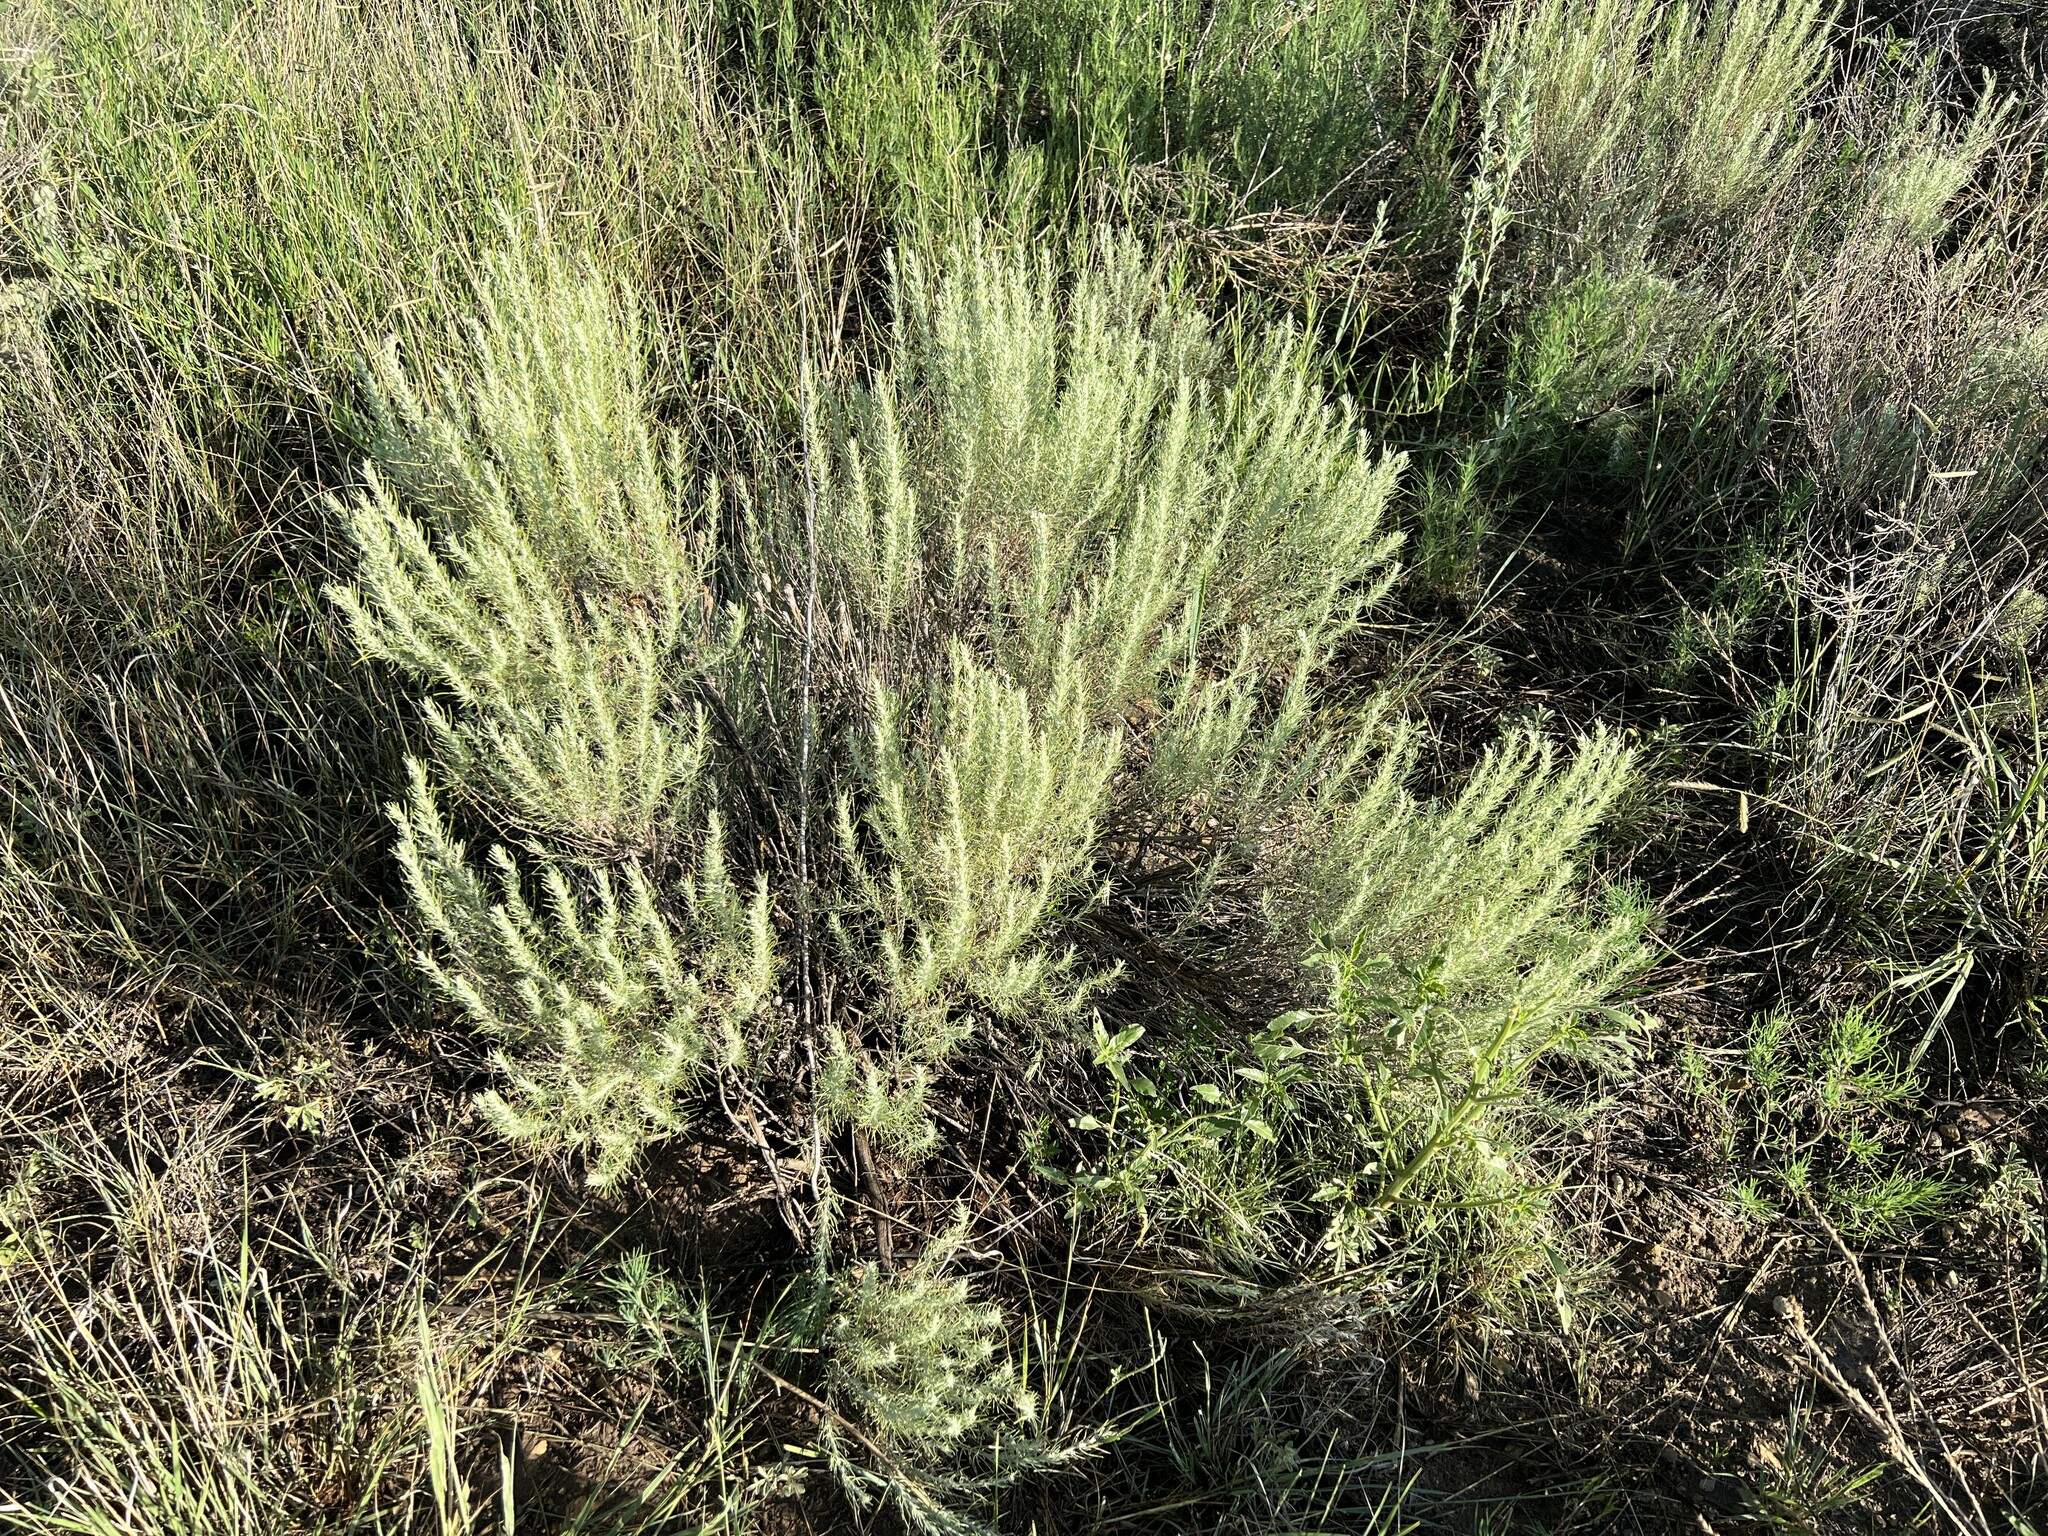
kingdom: Plantae
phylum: Tracheophyta
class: Magnoliopsida
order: Asterales
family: Asteraceae
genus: Artemisia
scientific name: Artemisia filifolia
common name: Sand-sage
